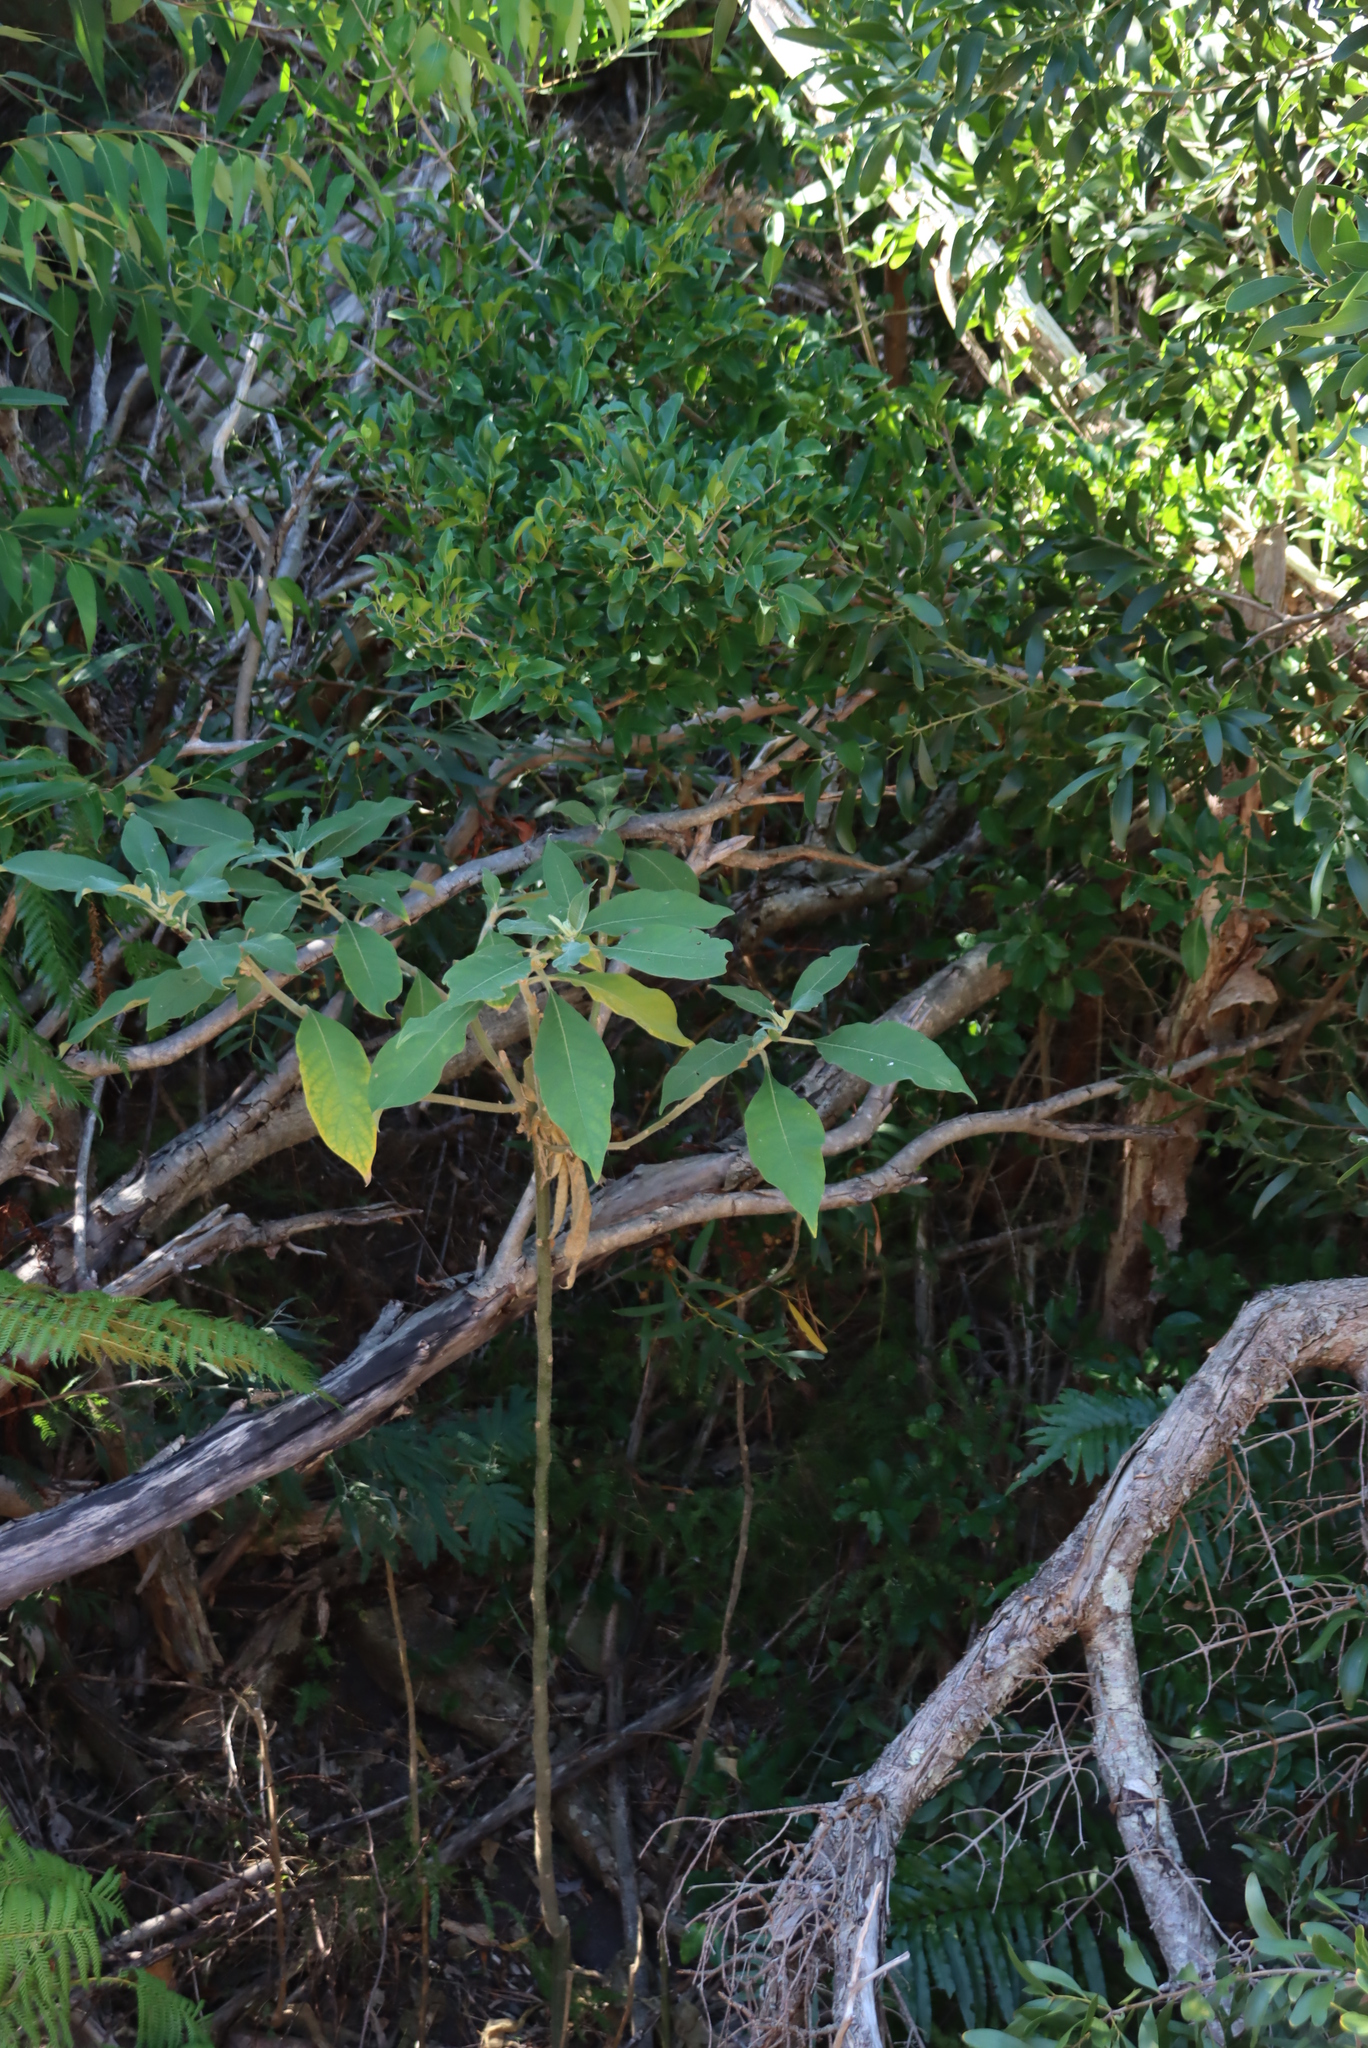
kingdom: Plantae
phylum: Tracheophyta
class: Magnoliopsida
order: Solanales
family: Solanaceae
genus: Solanum
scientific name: Solanum mauritianum
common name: Earleaf nightshade
